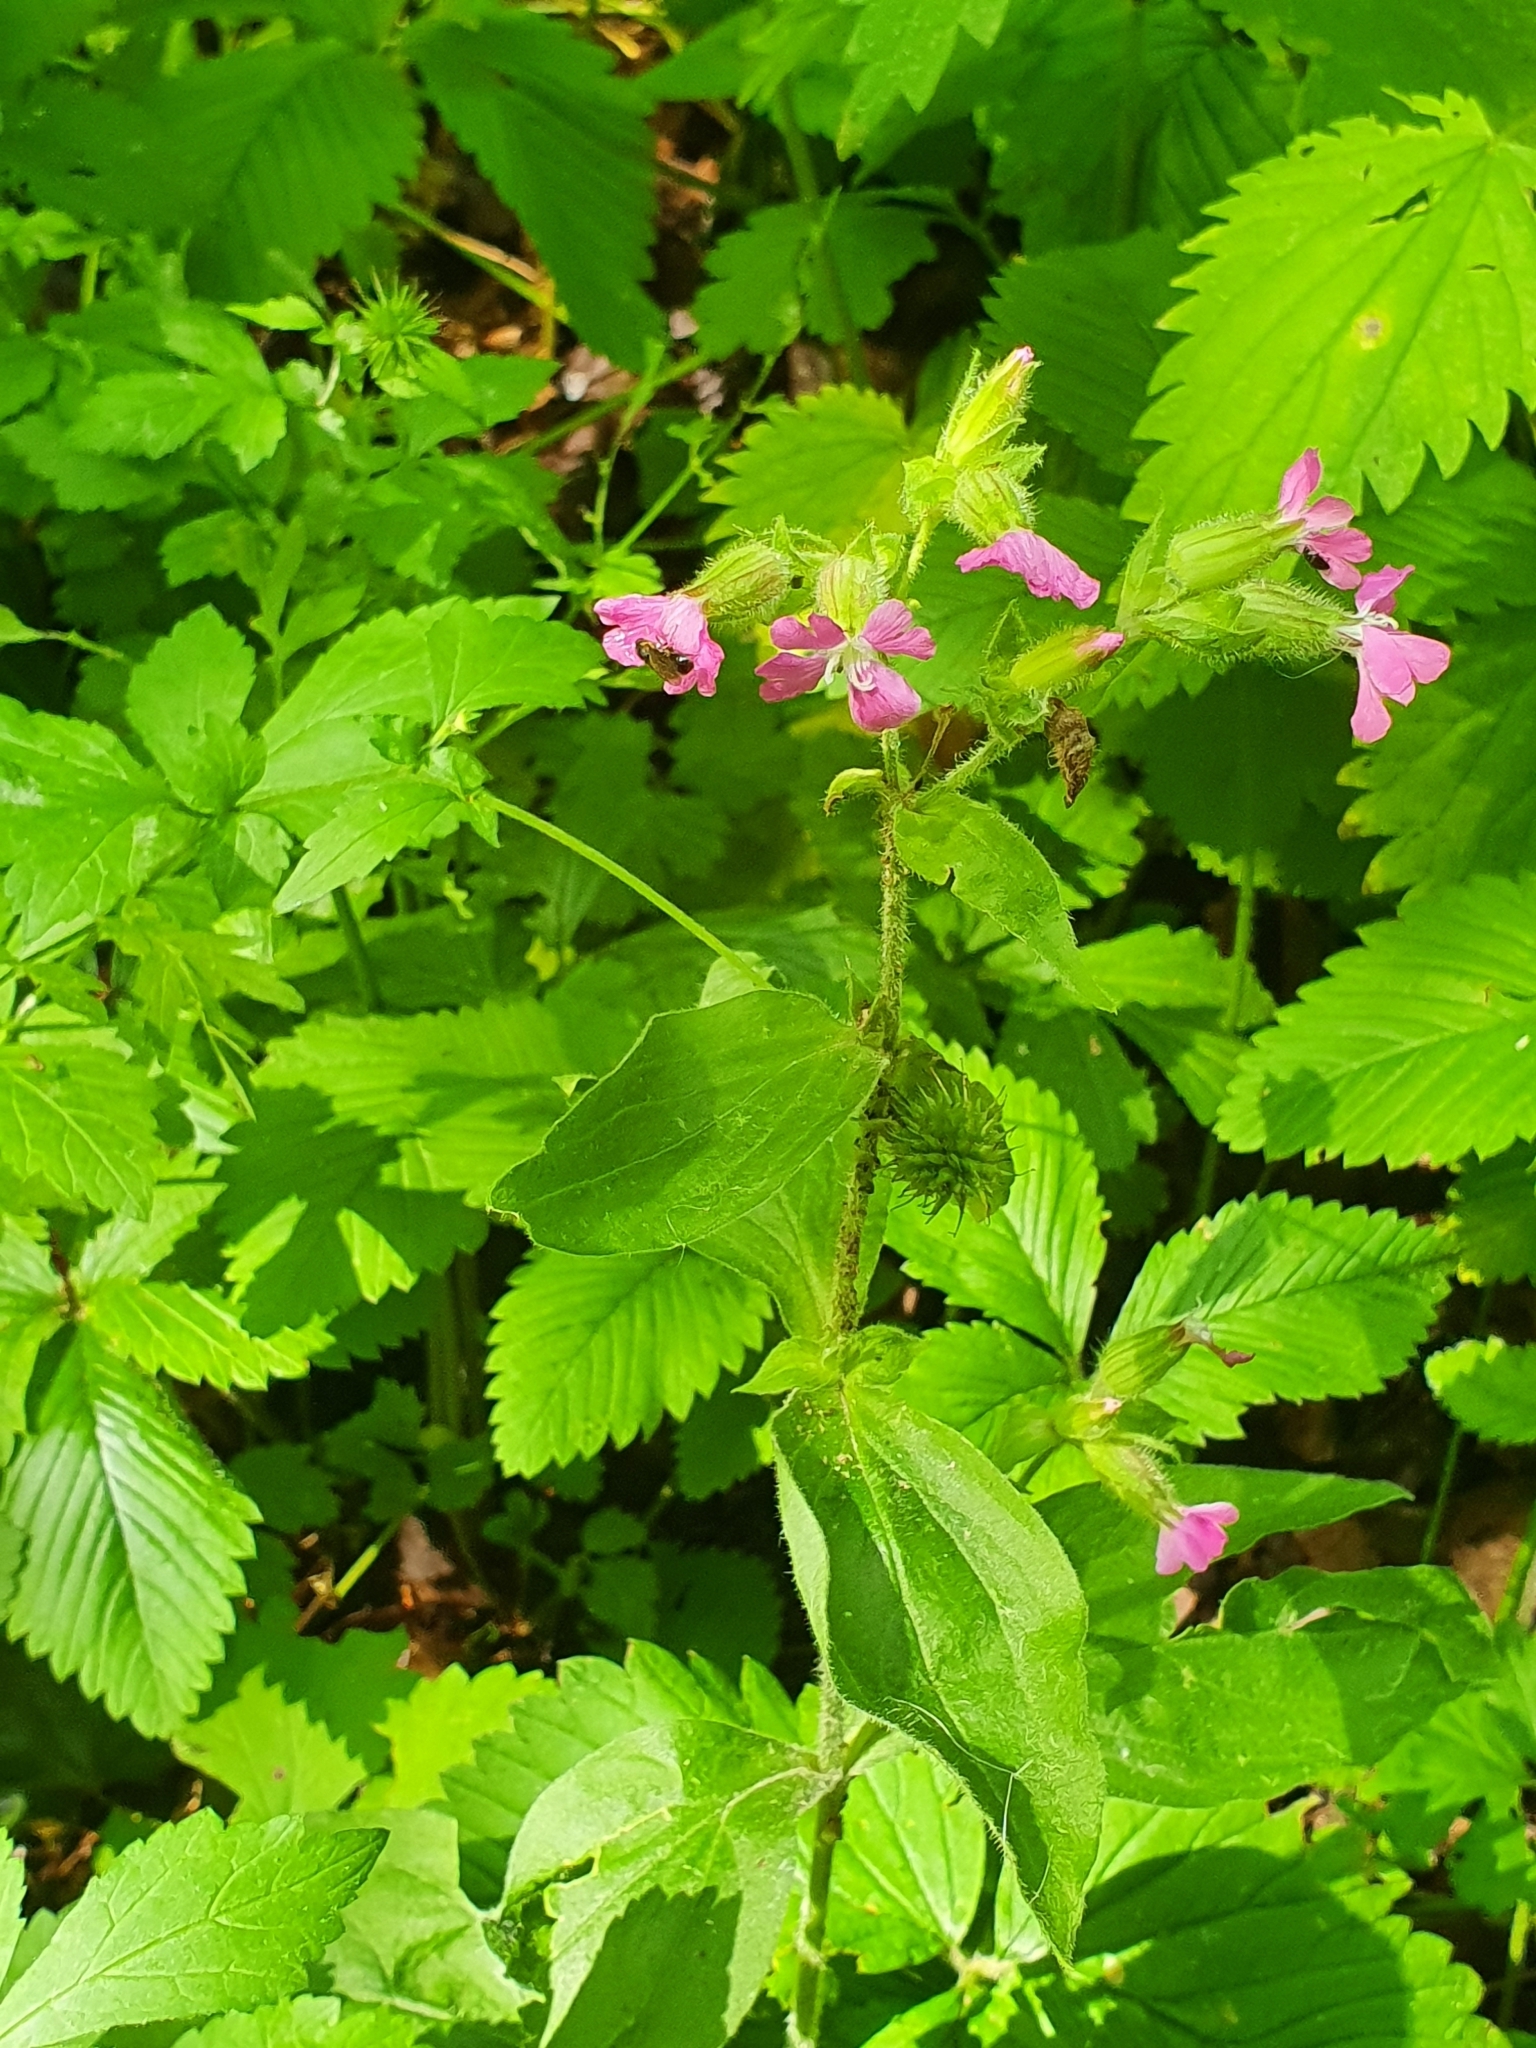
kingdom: Plantae
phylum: Tracheophyta
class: Magnoliopsida
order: Caryophyllales
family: Caryophyllaceae
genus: Silene
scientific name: Silene dioica
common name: Red campion
